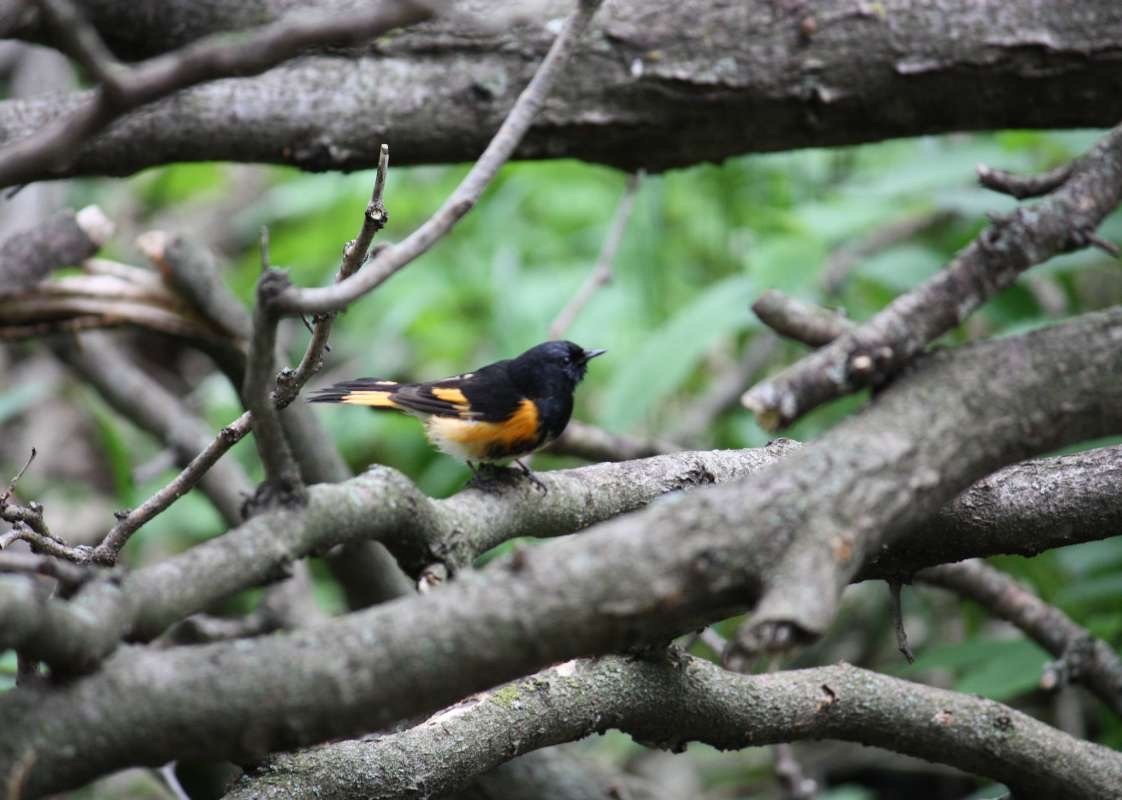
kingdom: Animalia
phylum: Chordata
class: Aves
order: Passeriformes
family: Parulidae
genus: Setophaga
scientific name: Setophaga ruticilla
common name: American redstart
